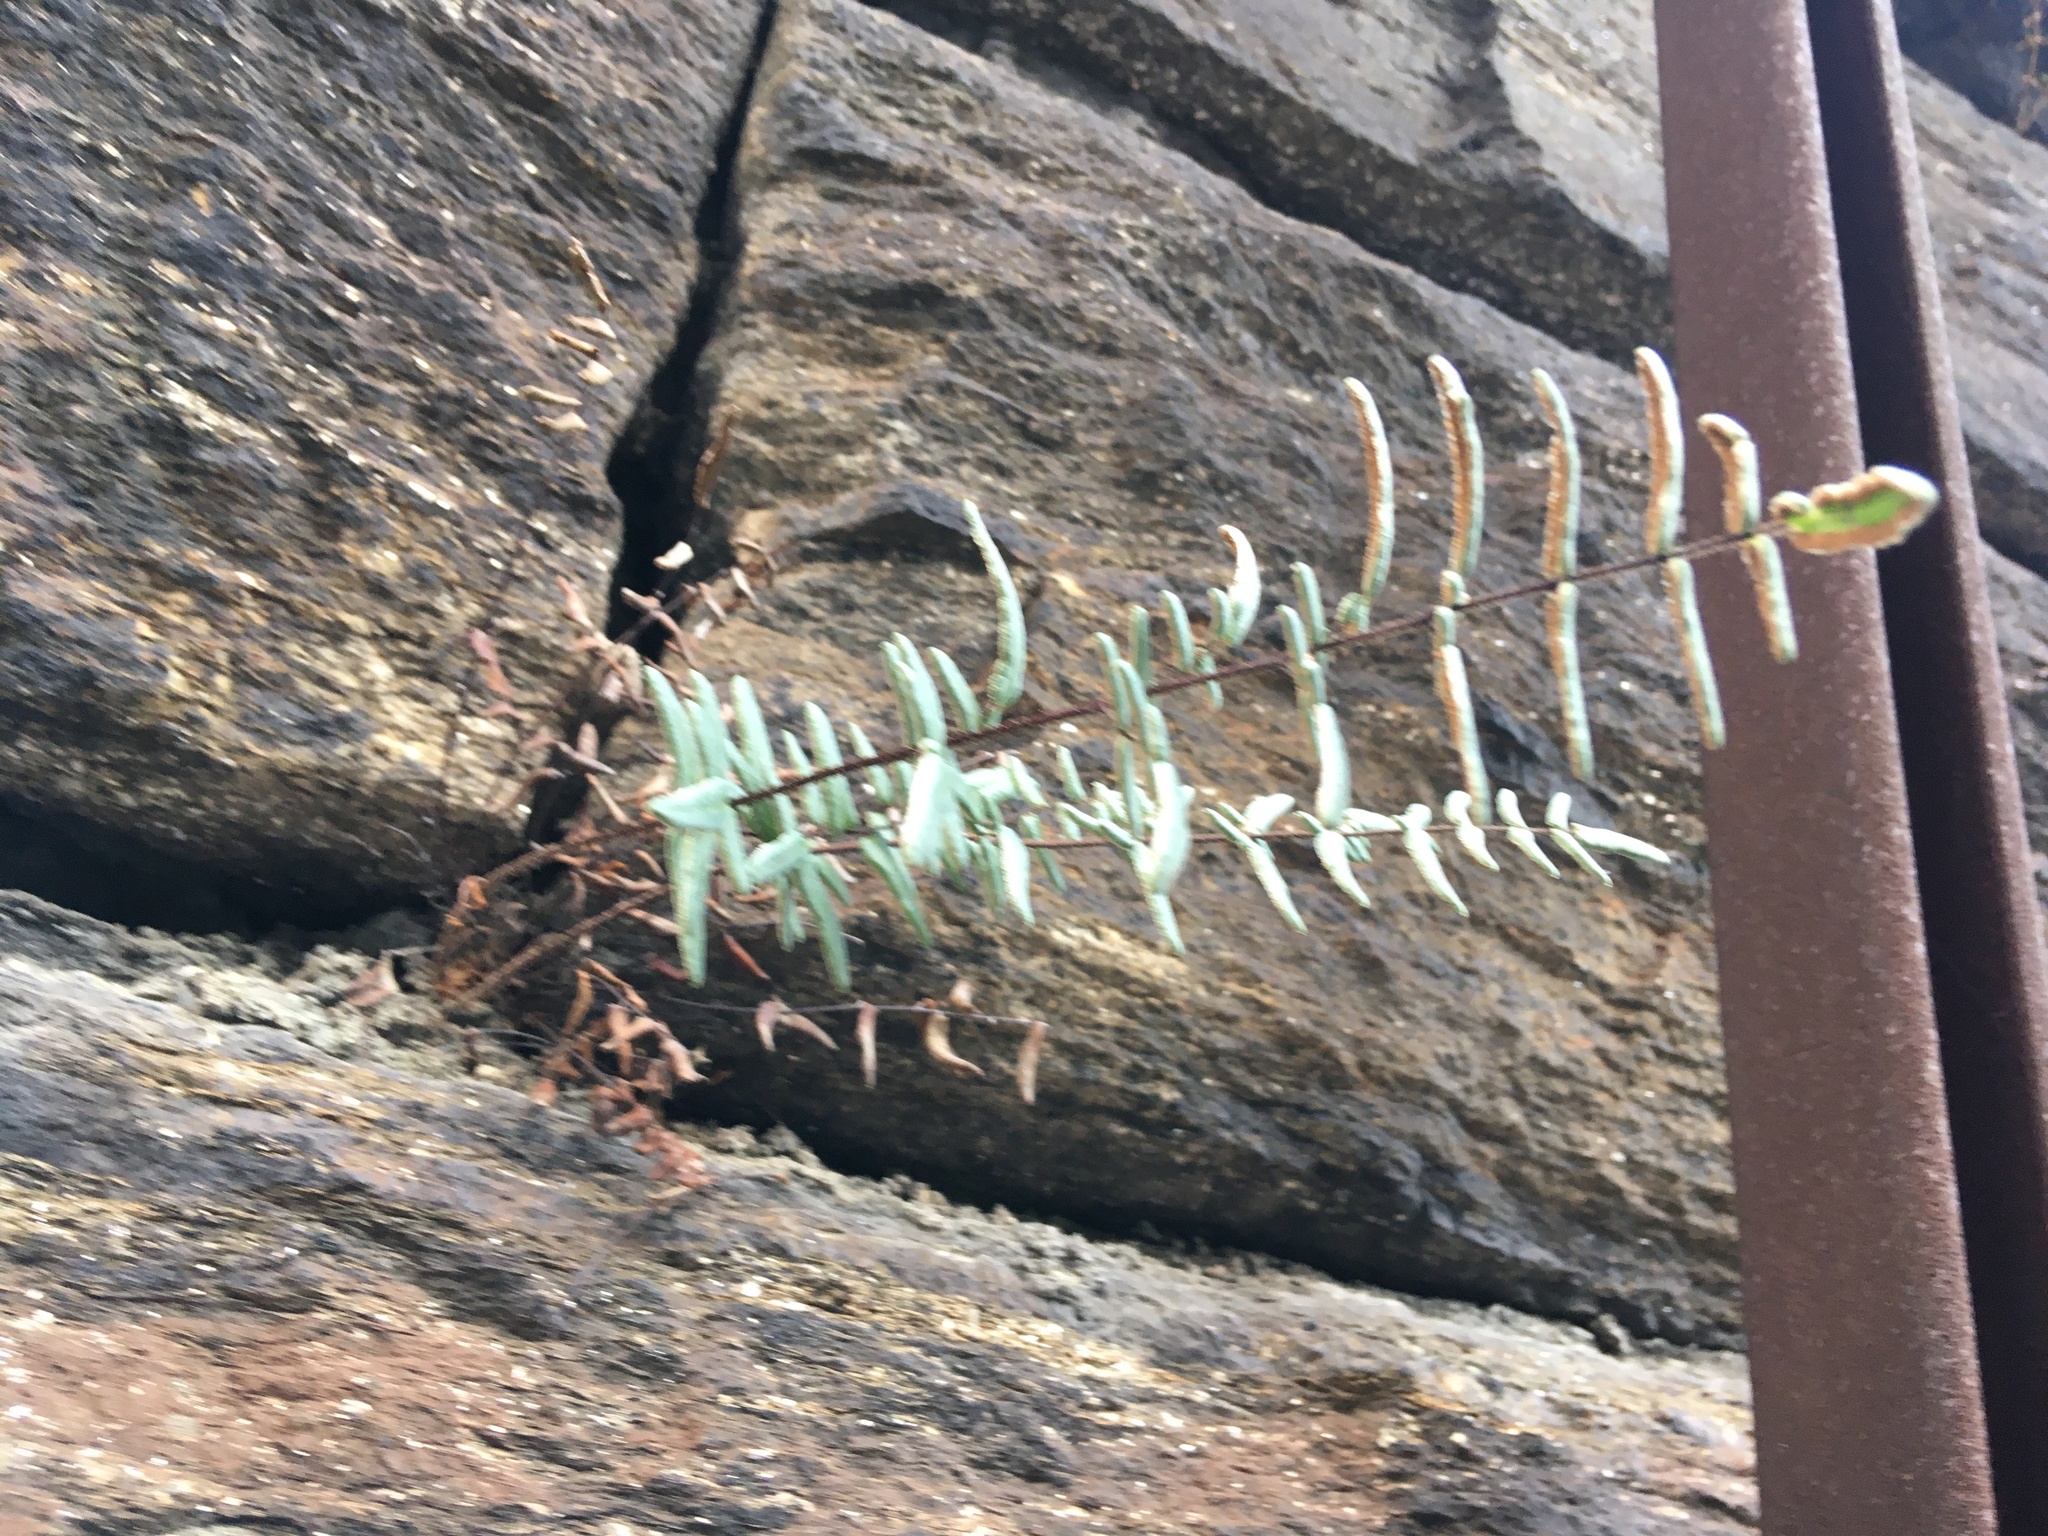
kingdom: Plantae
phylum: Tracheophyta
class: Polypodiopsida
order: Polypodiales
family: Pteridaceae
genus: Pellaea
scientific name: Pellaea atropurpurea
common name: Hairy cliffbrake
